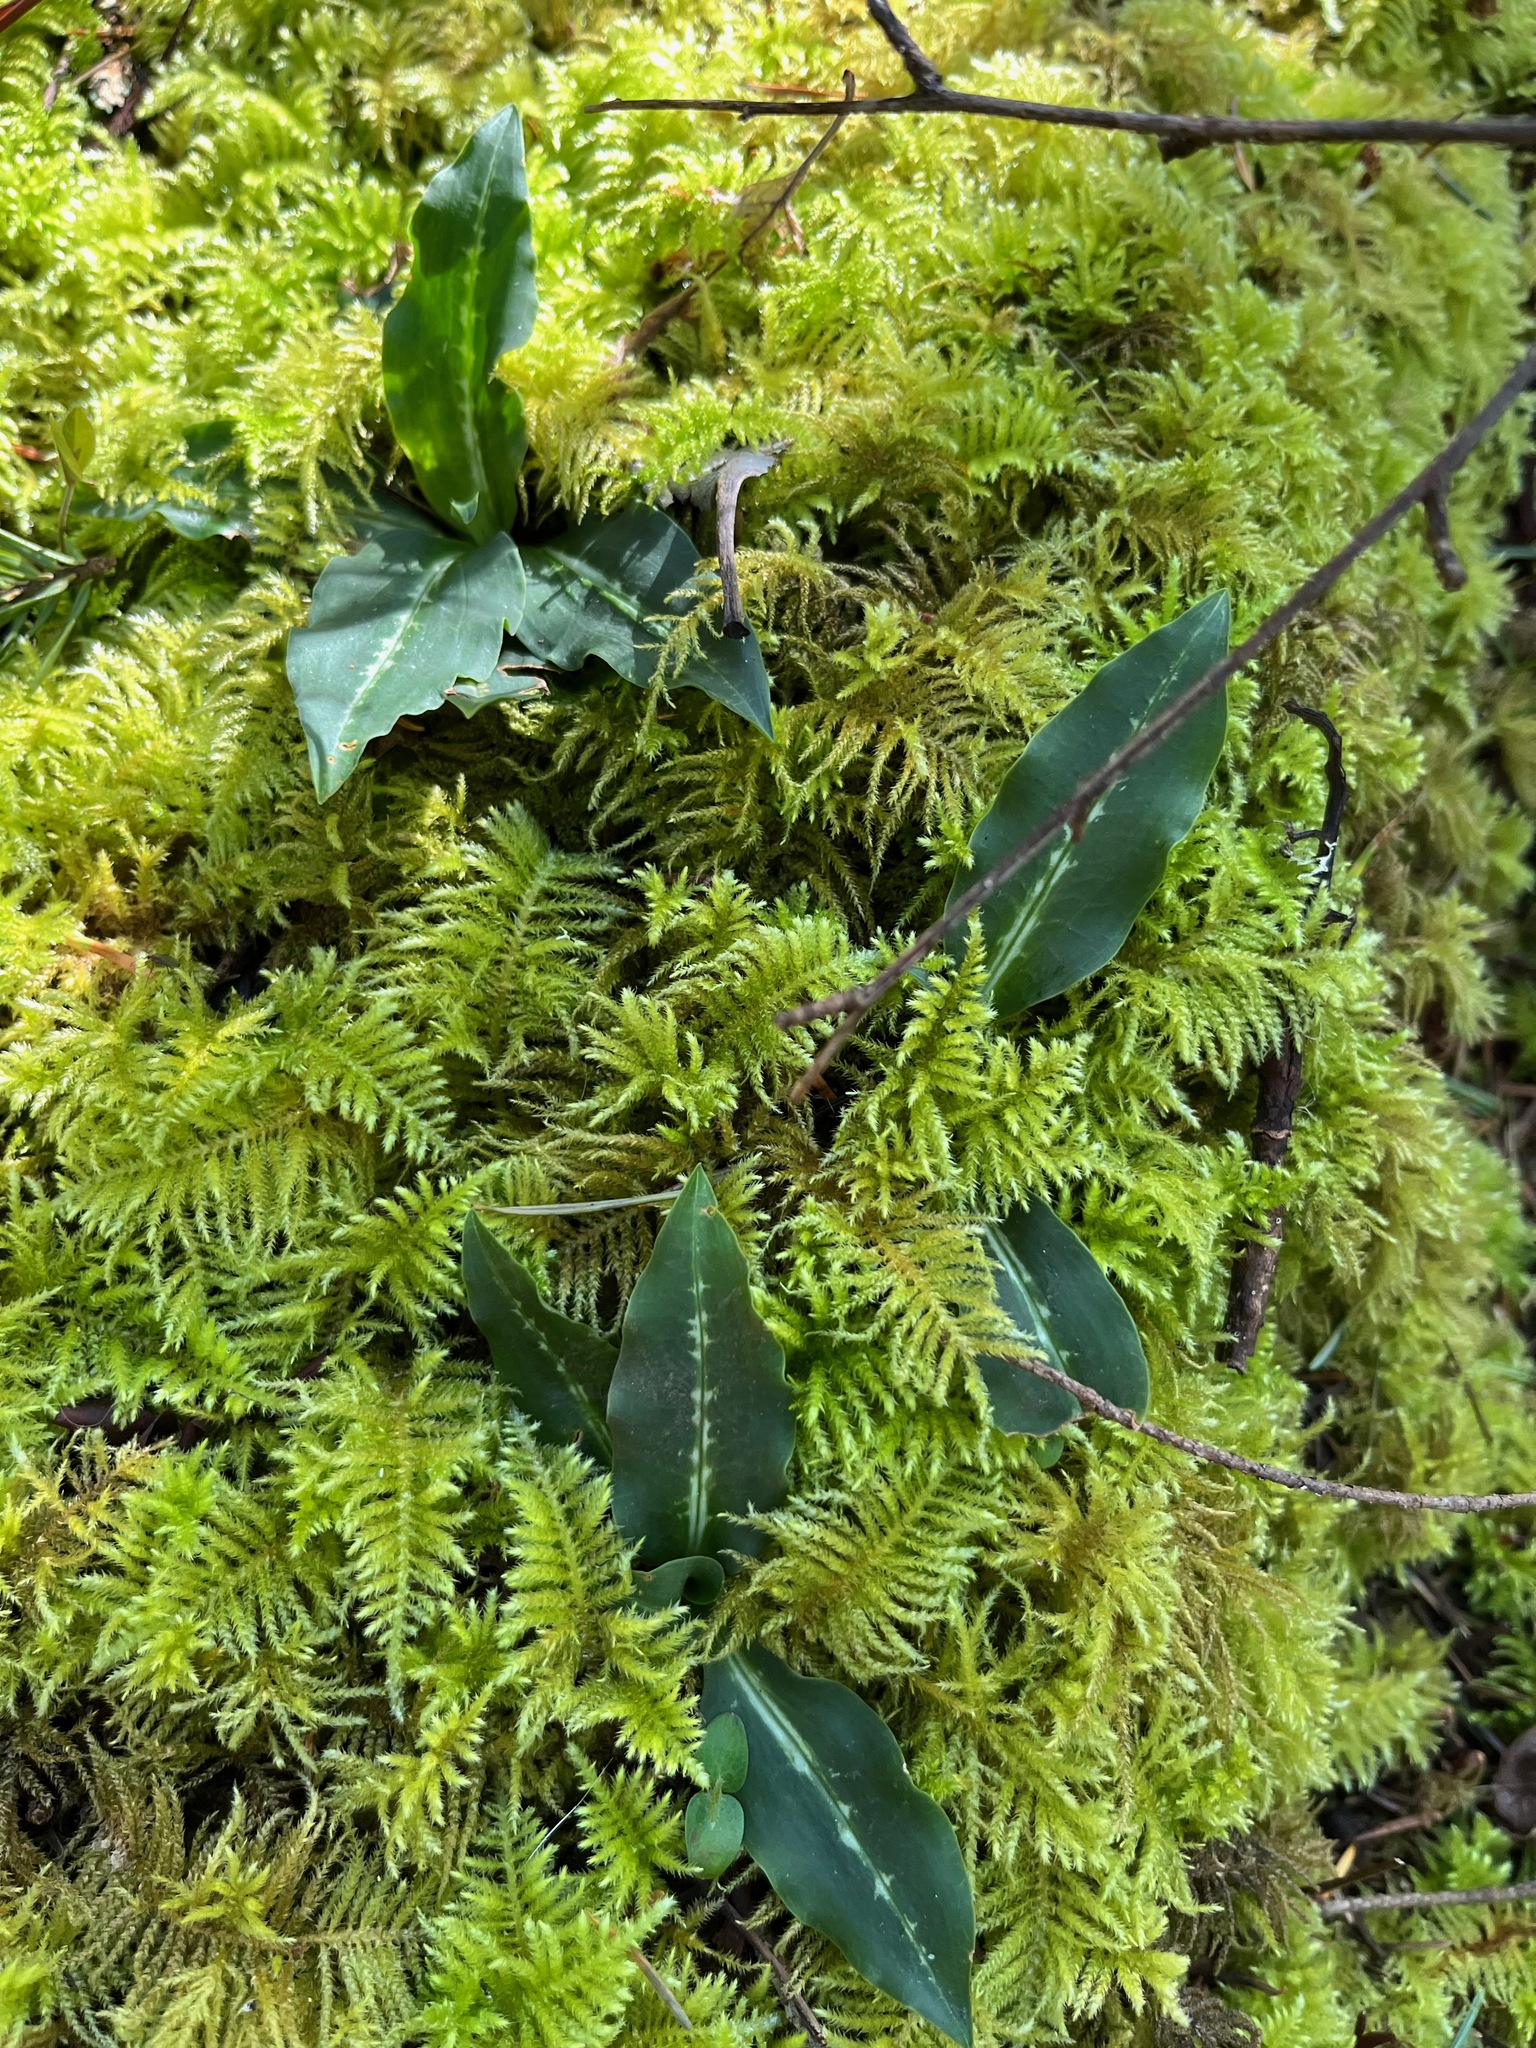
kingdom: Plantae
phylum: Tracheophyta
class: Liliopsida
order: Asparagales
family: Orchidaceae
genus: Goodyera
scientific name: Goodyera oblongifolia
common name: Giant rattlesnake-plantain
